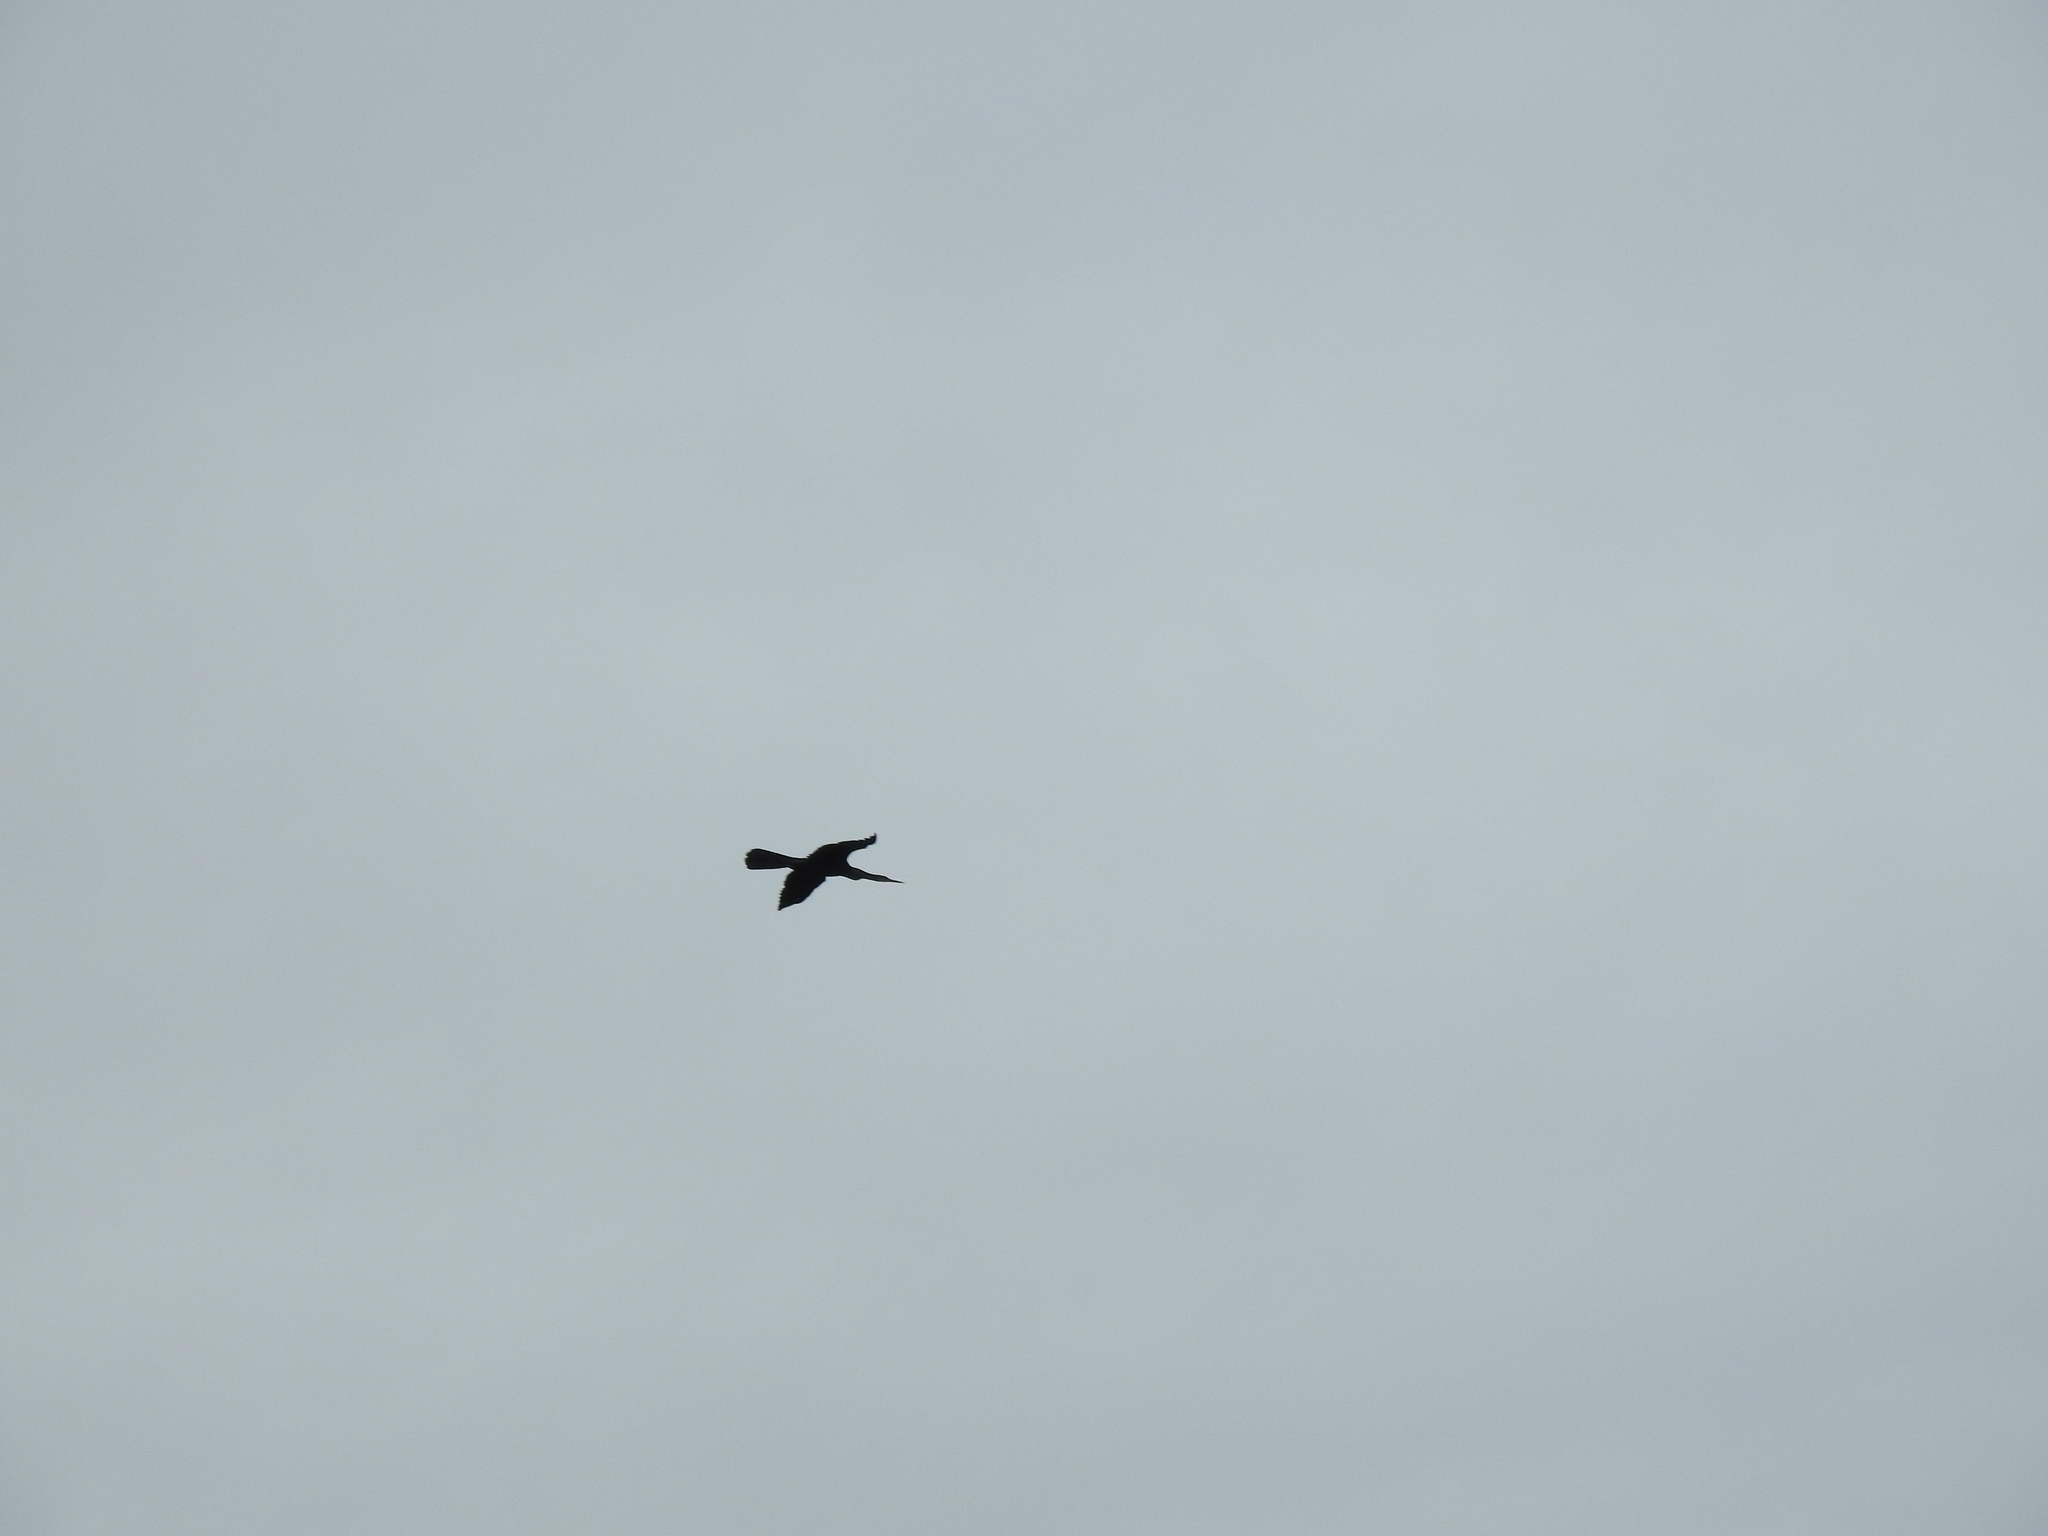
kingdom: Animalia
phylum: Chordata
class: Aves
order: Suliformes
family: Anhingidae
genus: Anhinga
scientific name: Anhinga anhinga
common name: Anhinga
